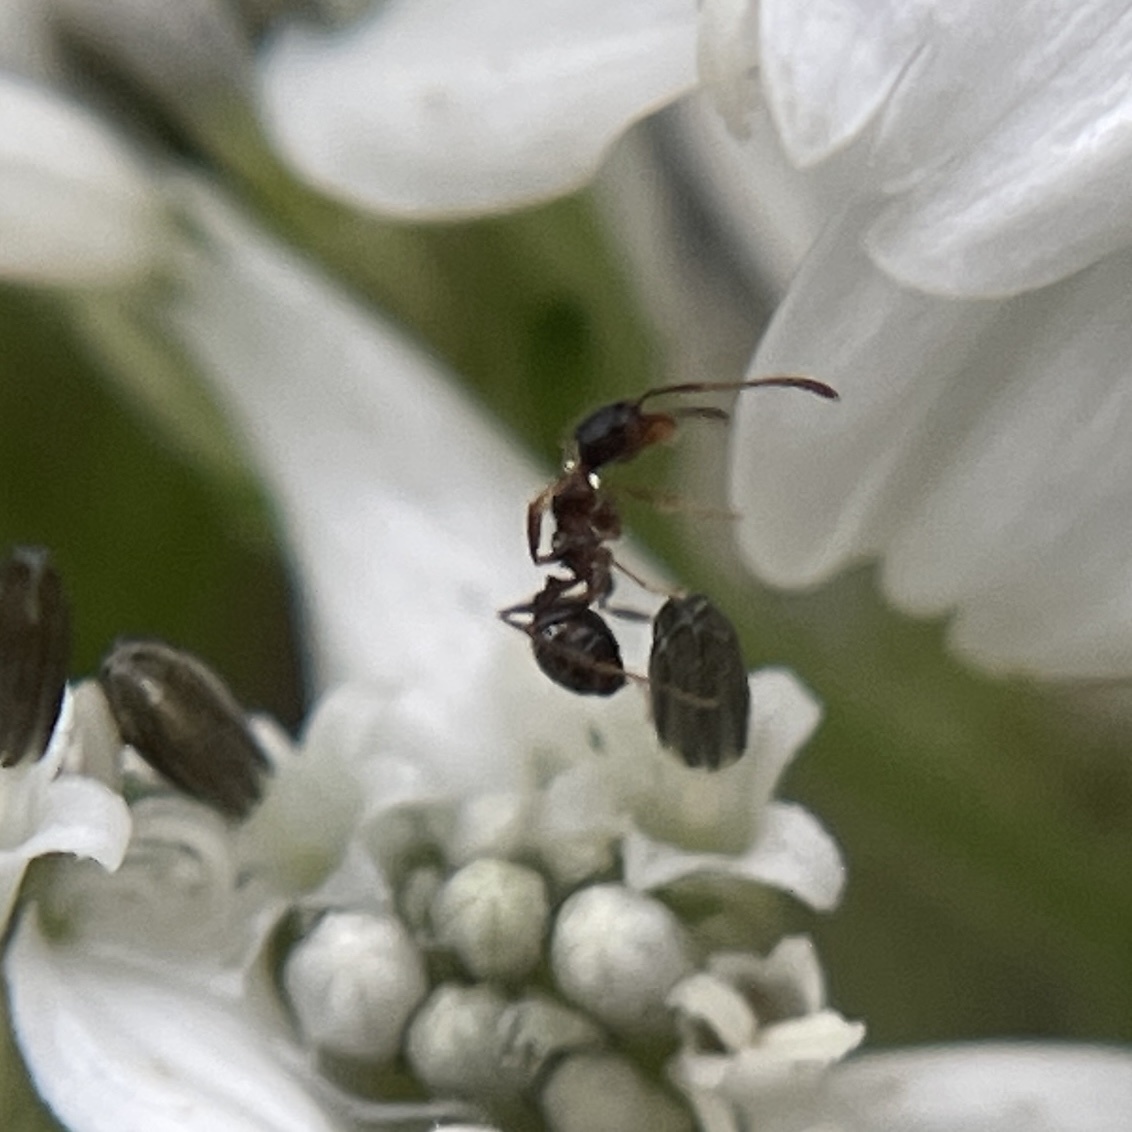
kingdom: Animalia
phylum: Arthropoda
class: Insecta
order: Hymenoptera
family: Formicidae
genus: Pheidole
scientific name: Pheidole
